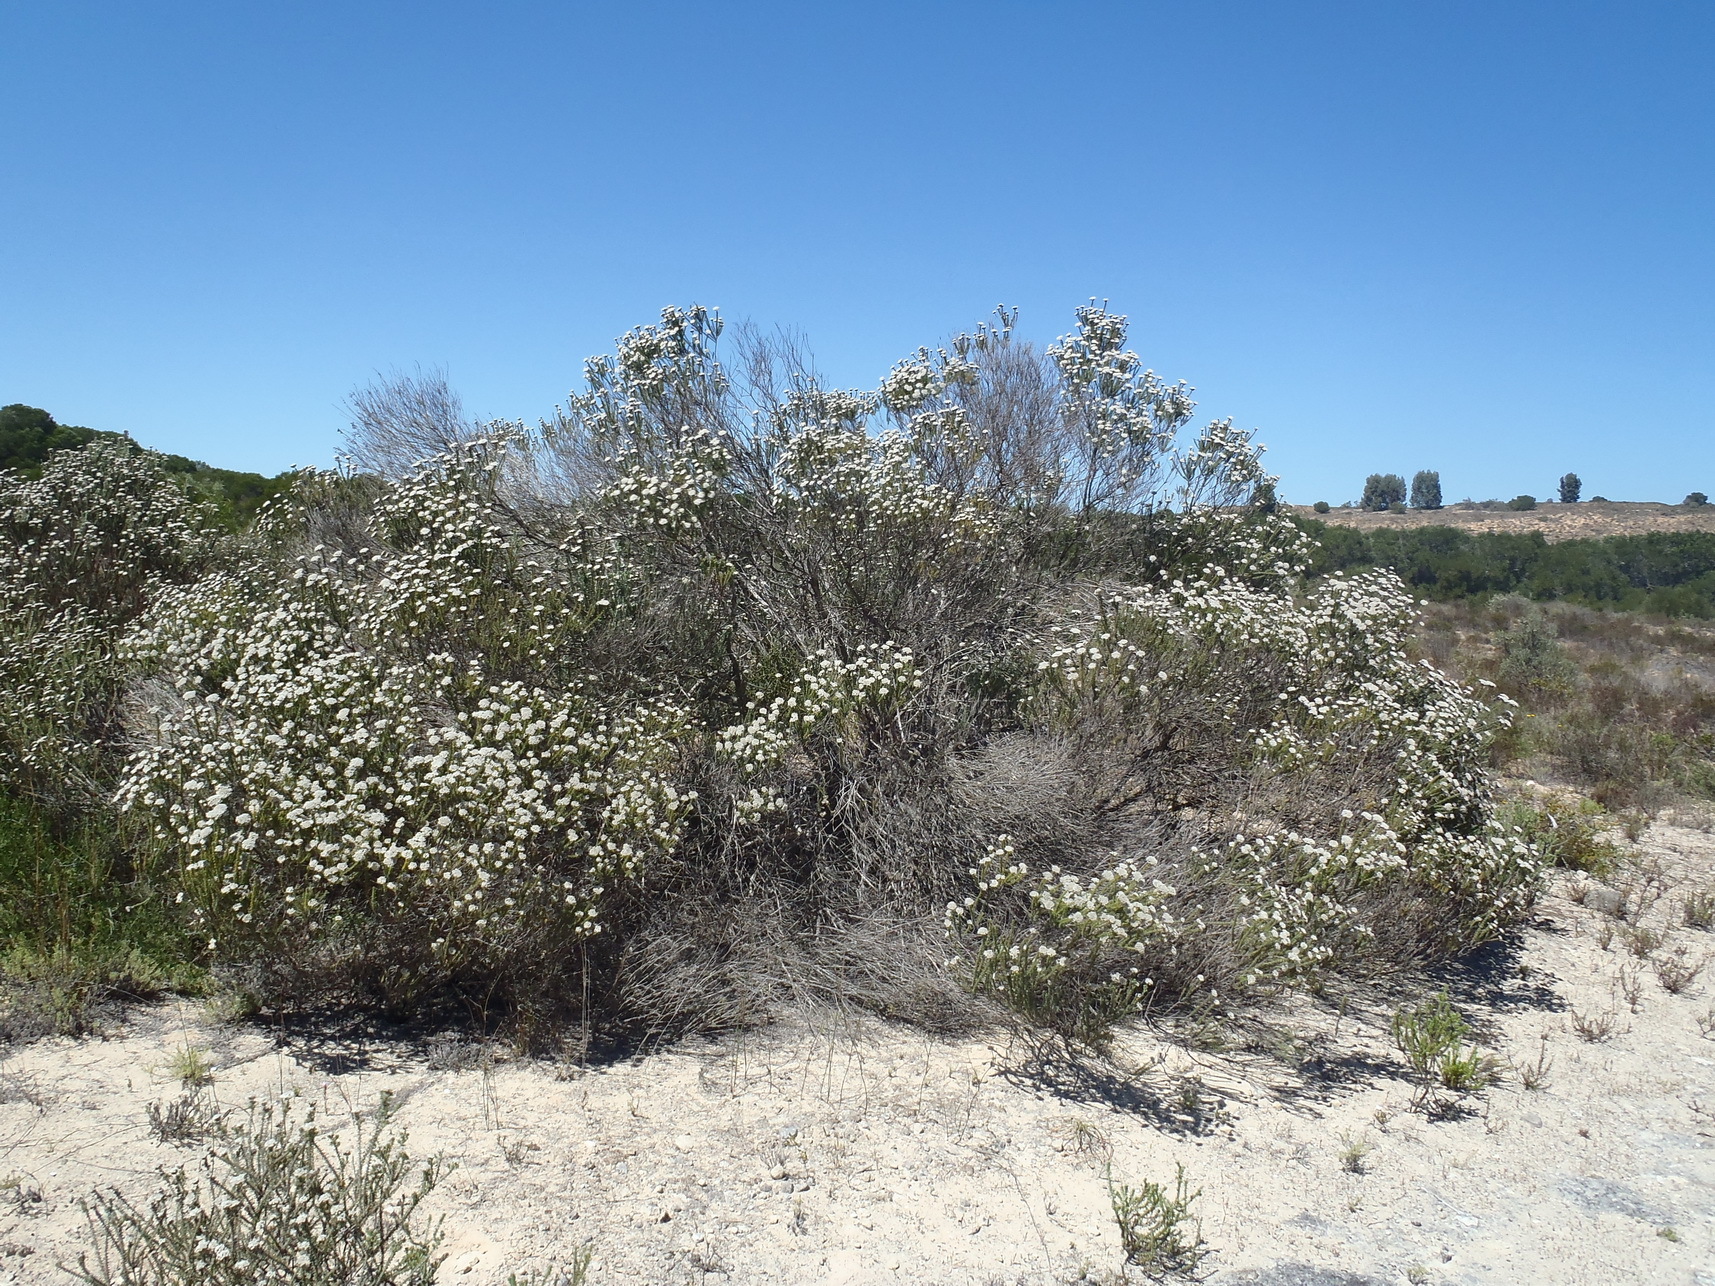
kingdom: Plantae
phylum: Tracheophyta
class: Magnoliopsida
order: Asterales
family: Asteraceae
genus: Metalasia
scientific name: Metalasia muricata
